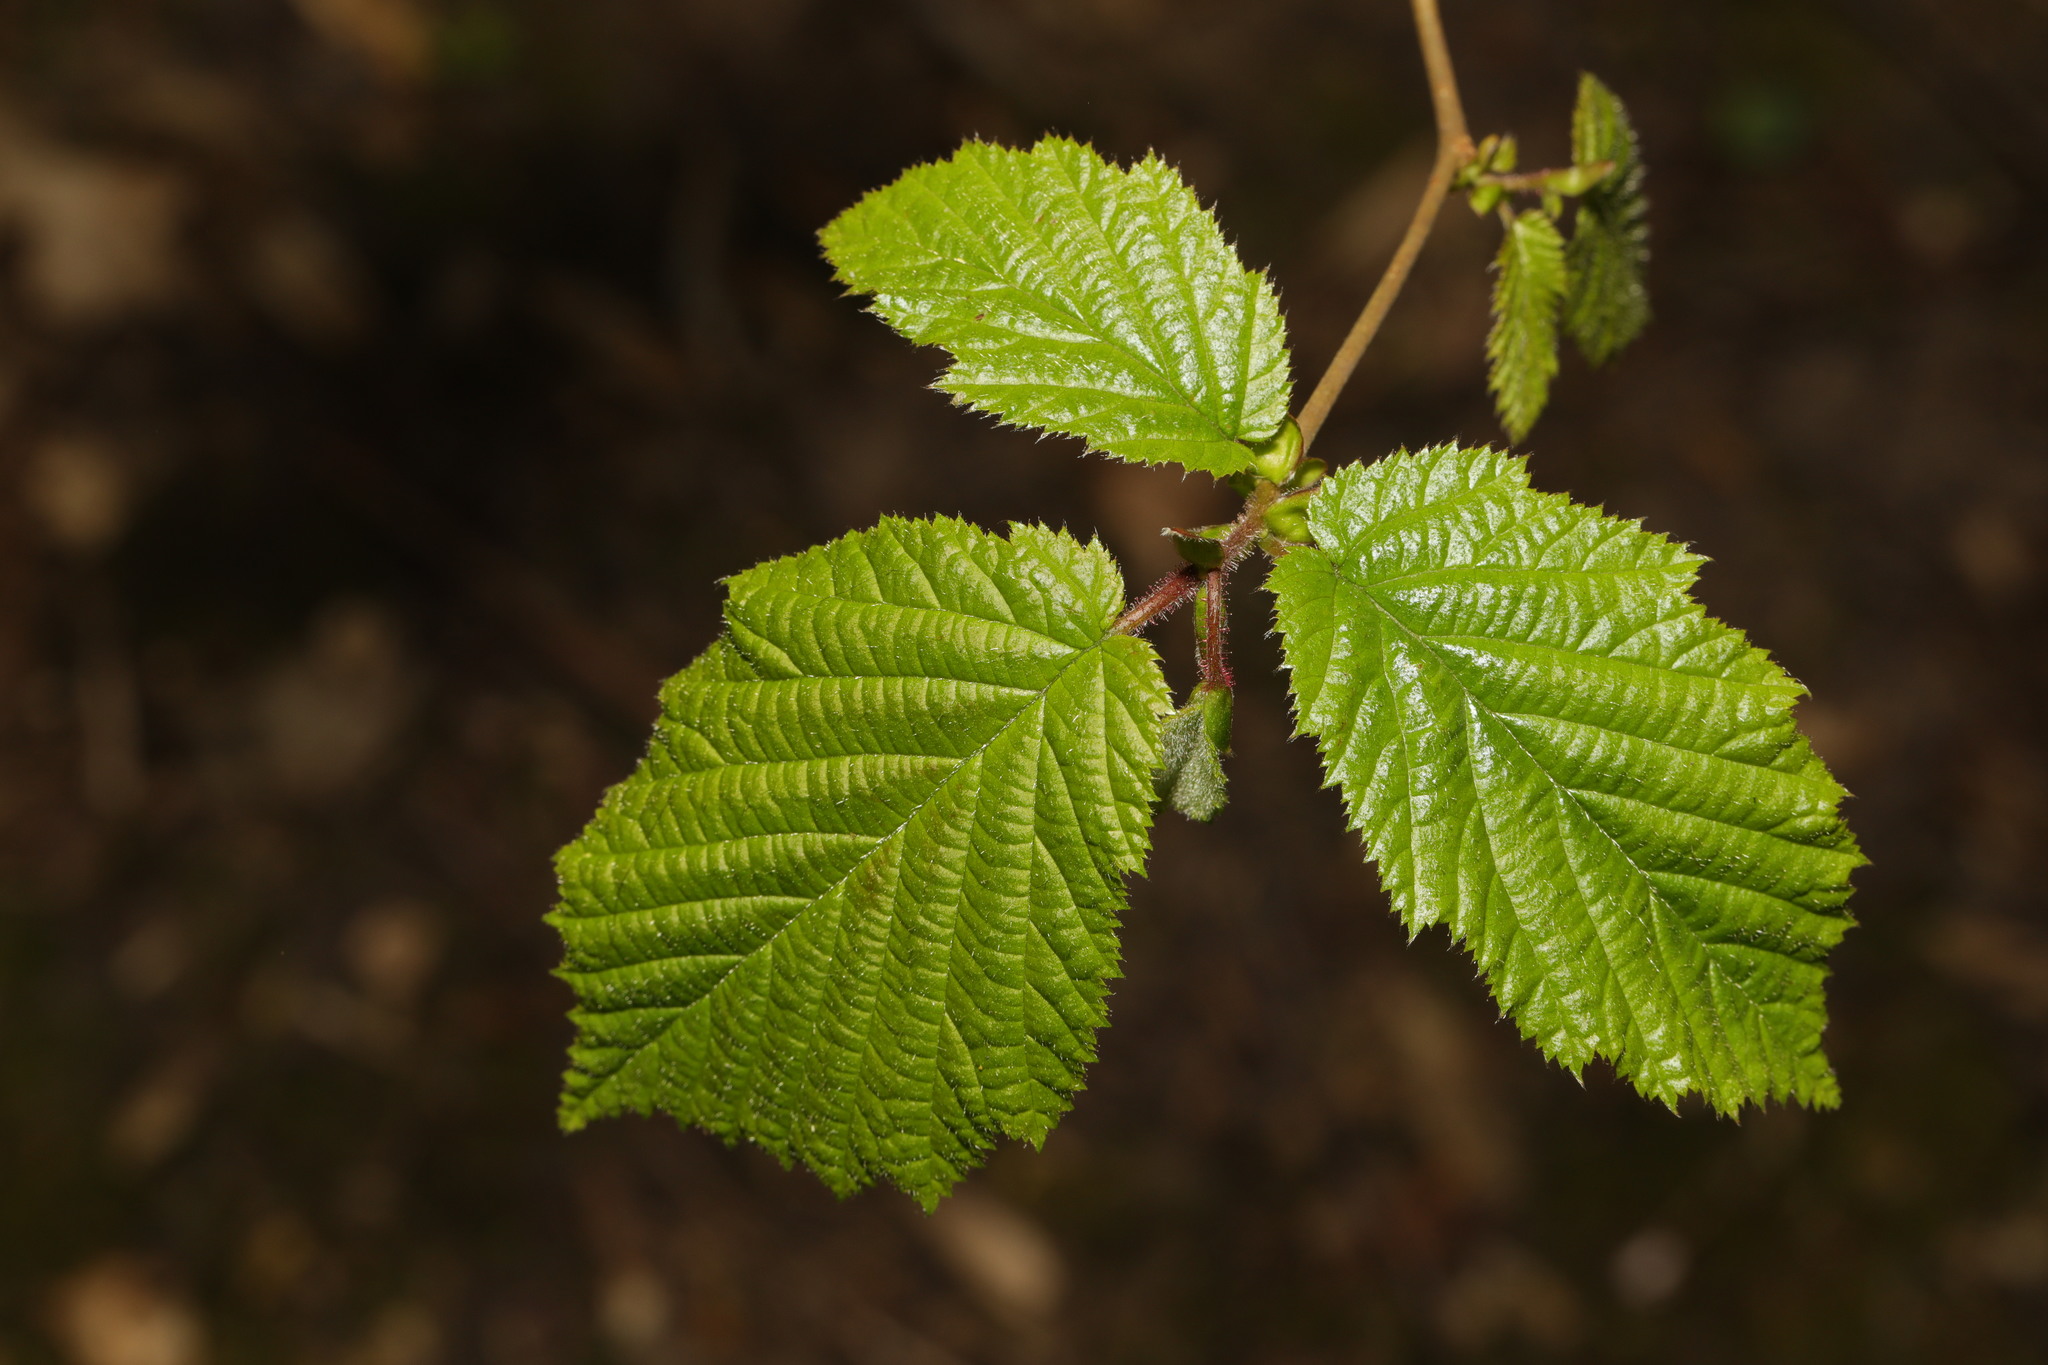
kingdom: Plantae
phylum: Tracheophyta
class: Magnoliopsida
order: Fagales
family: Betulaceae
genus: Corylus
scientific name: Corylus avellana
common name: European hazel
